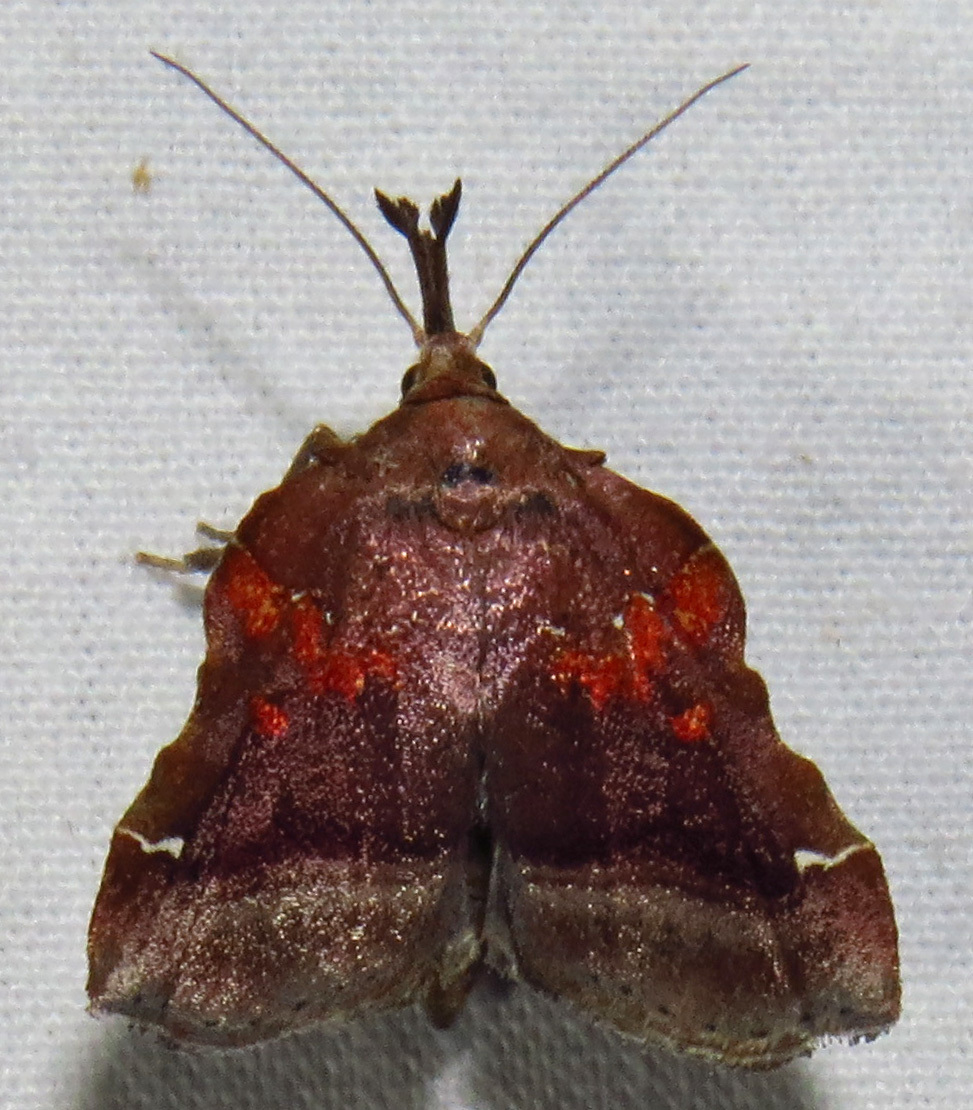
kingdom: Animalia
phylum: Arthropoda
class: Insecta
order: Lepidoptera
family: Pyralidae
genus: Clydonopteron
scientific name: Clydonopteron sacculana
